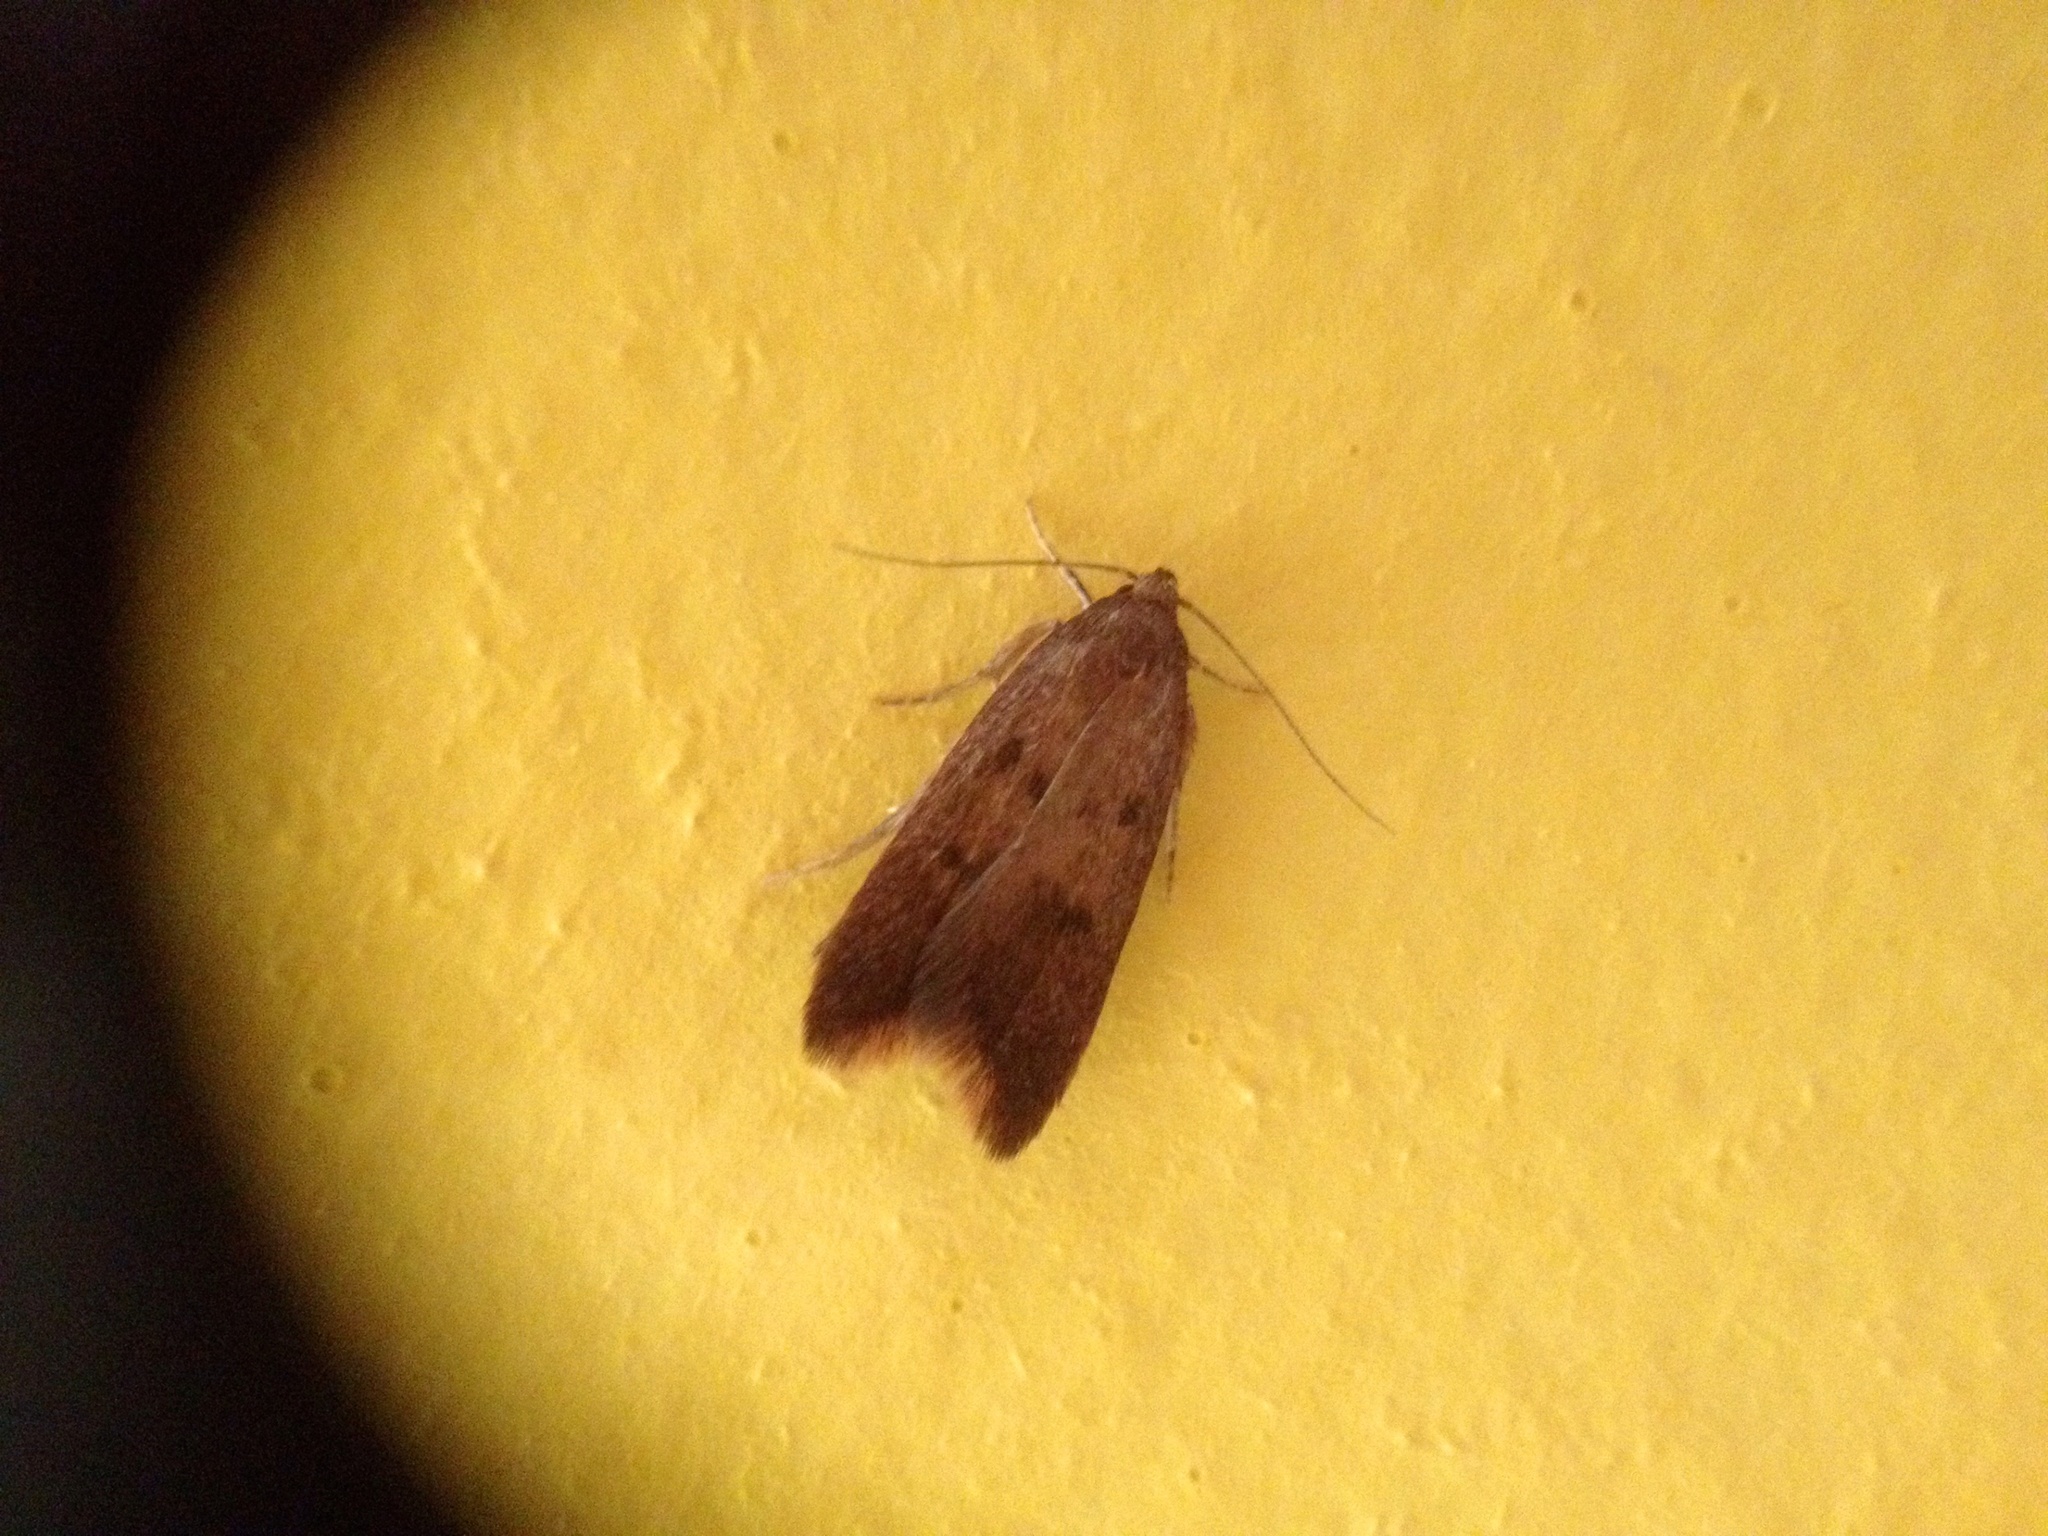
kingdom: Animalia
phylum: Arthropoda
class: Insecta
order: Lepidoptera
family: Oecophoridae
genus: Tachystola
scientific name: Tachystola acroxantha
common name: Ruddy streak
